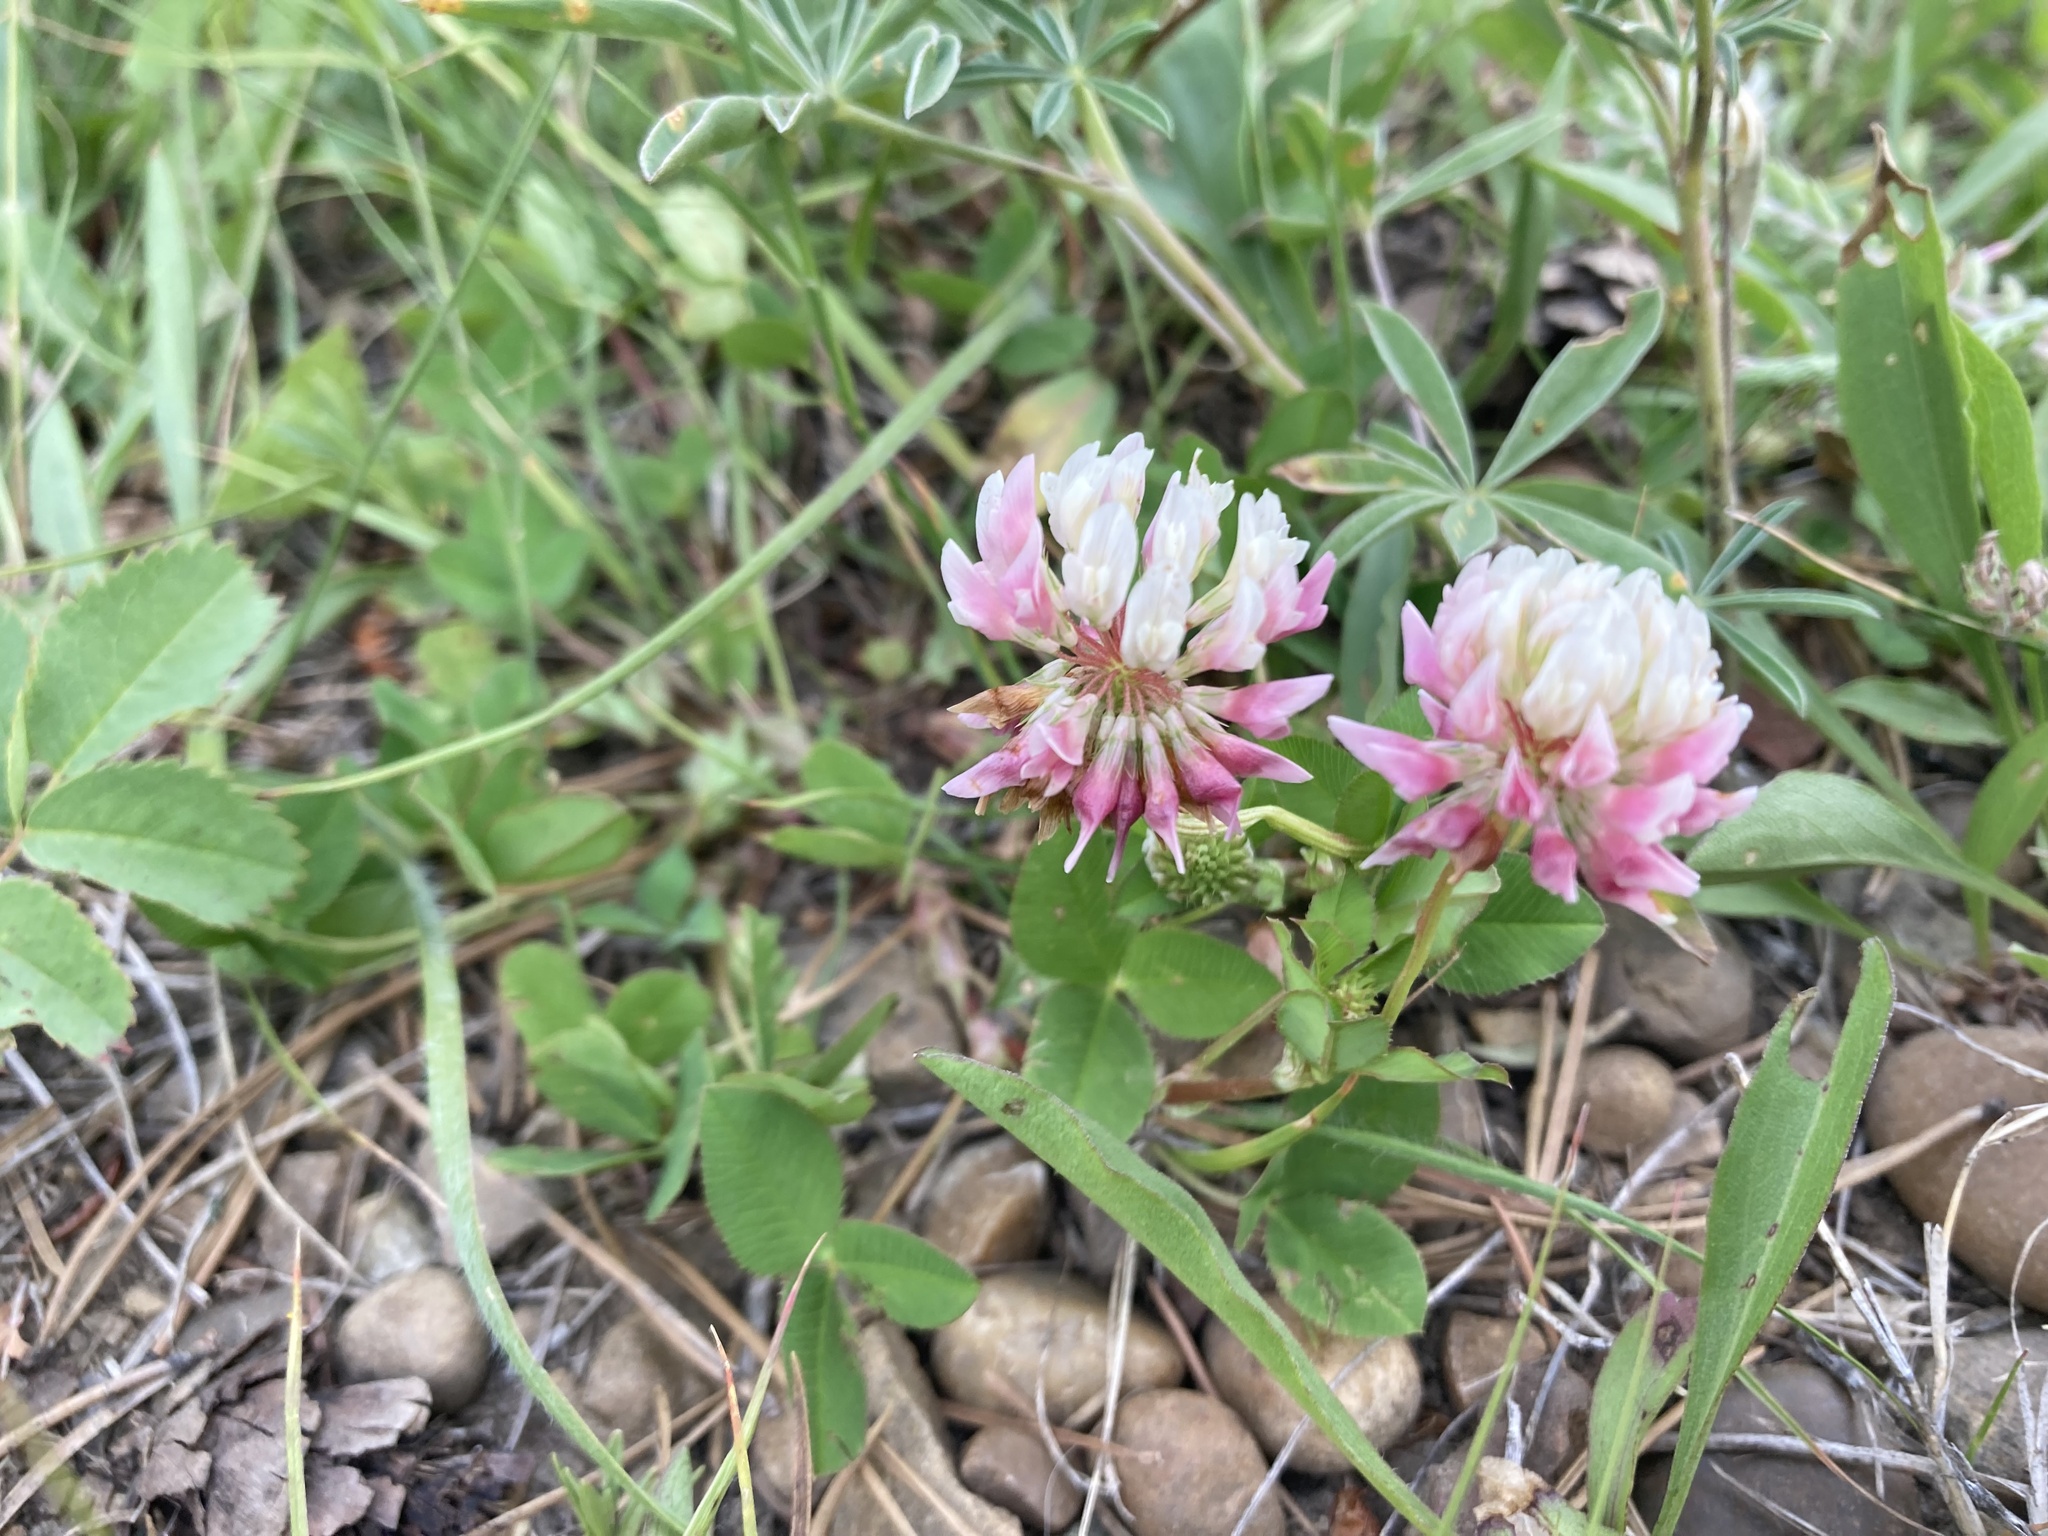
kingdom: Plantae
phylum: Tracheophyta
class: Magnoliopsida
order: Fabales
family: Fabaceae
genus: Trifolium
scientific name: Trifolium hybridum
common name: Alsike clover
